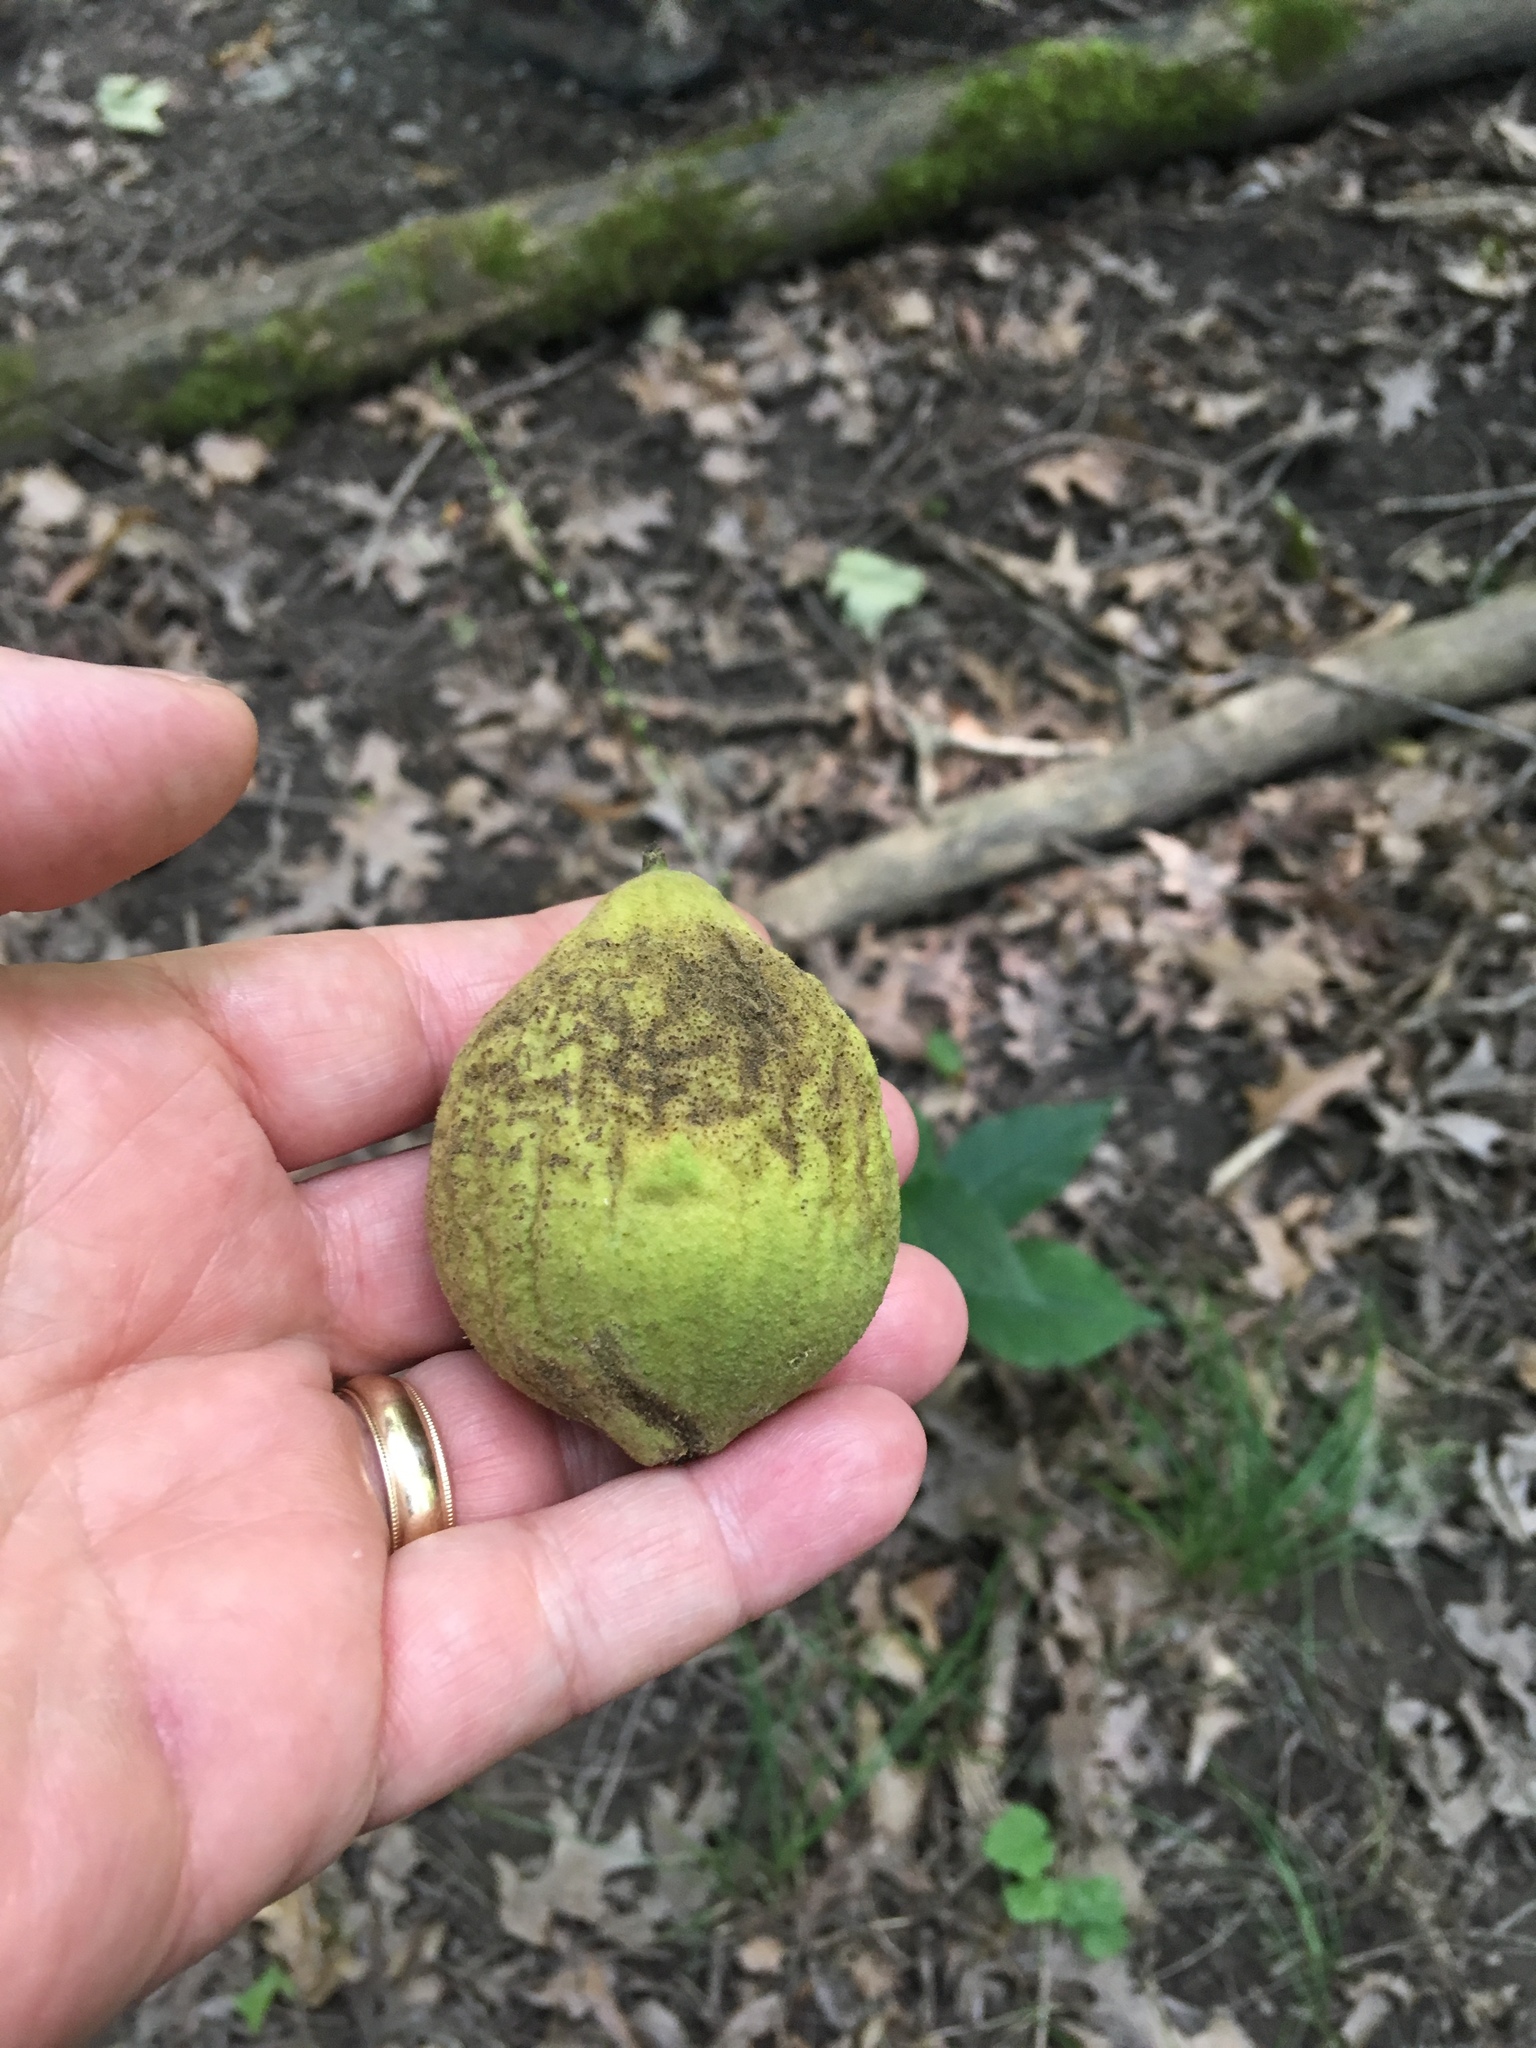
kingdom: Plantae
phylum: Tracheophyta
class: Magnoliopsida
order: Fagales
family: Juglandaceae
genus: Juglans
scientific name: Juglans nigra
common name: Black walnut
